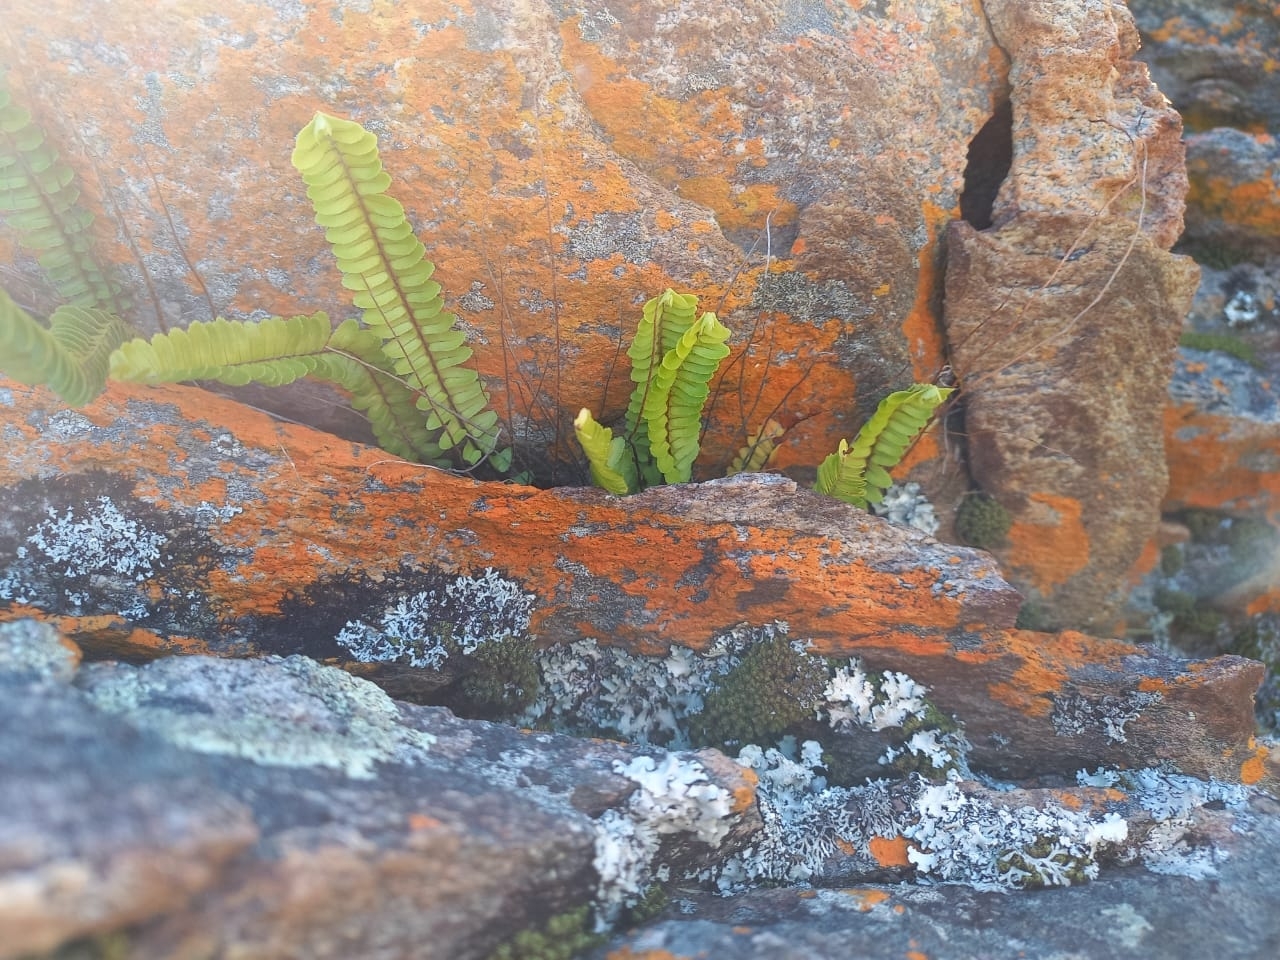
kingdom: Plantae
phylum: Tracheophyta
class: Polypodiopsida
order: Polypodiales
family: Nephrolepidaceae
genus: Nephrolepis
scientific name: Nephrolepis cordifolia
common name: Narrow swordfern
